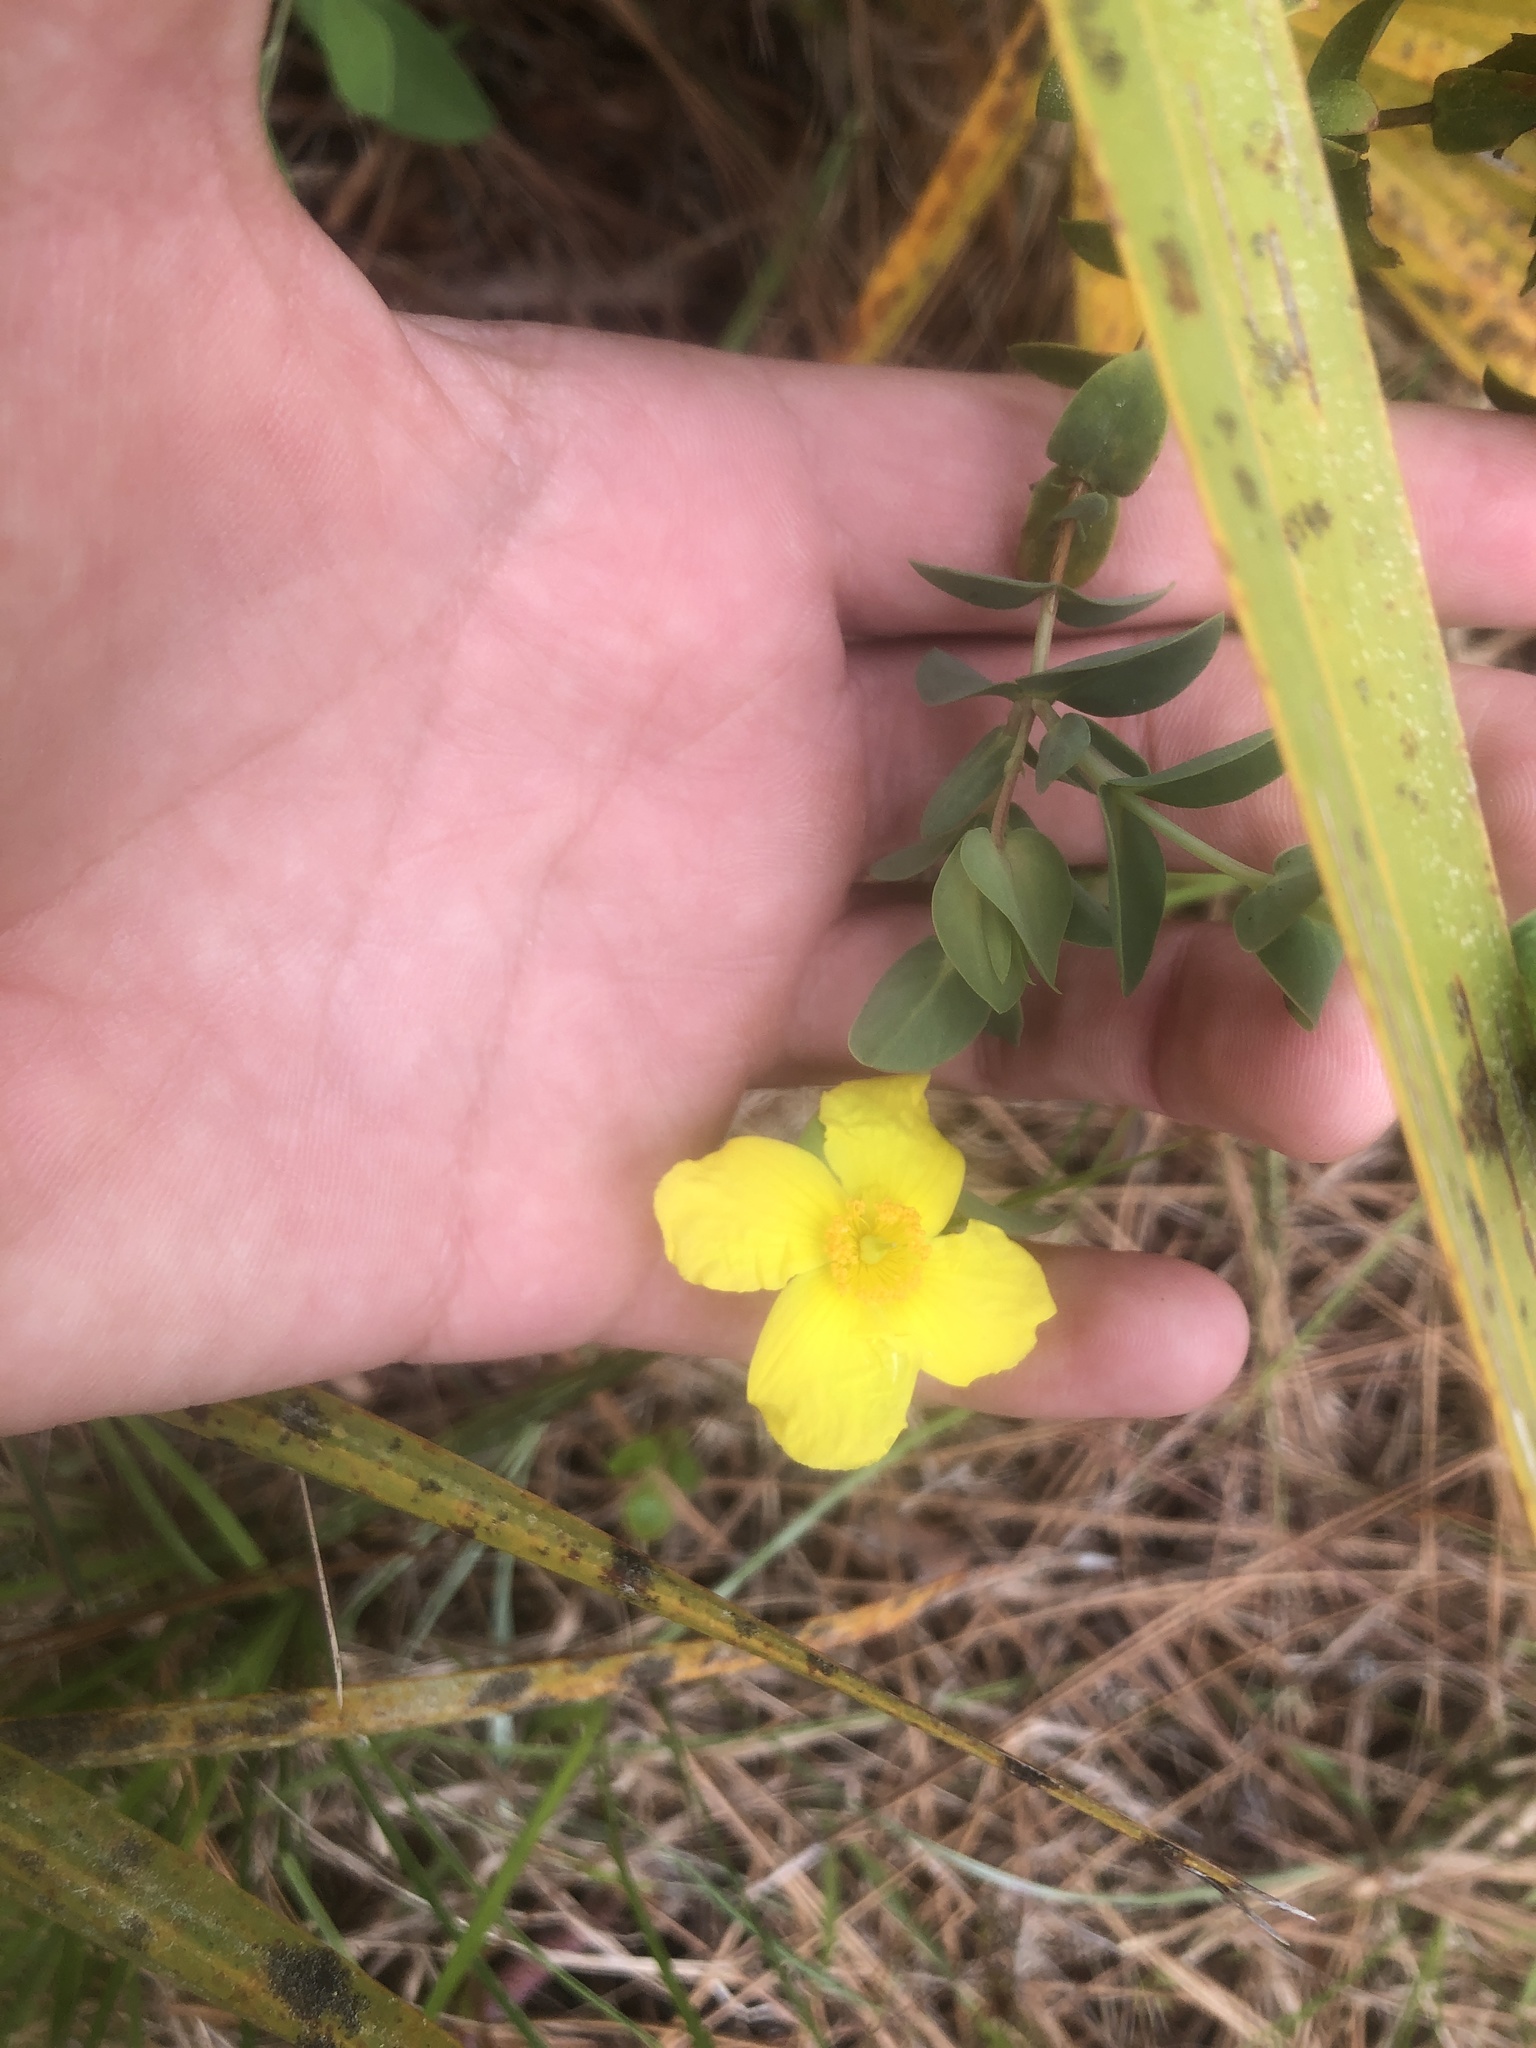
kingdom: Plantae
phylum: Tracheophyta
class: Magnoliopsida
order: Malpighiales
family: Hypericaceae
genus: Hypericum
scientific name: Hypericum tetrapetalum
